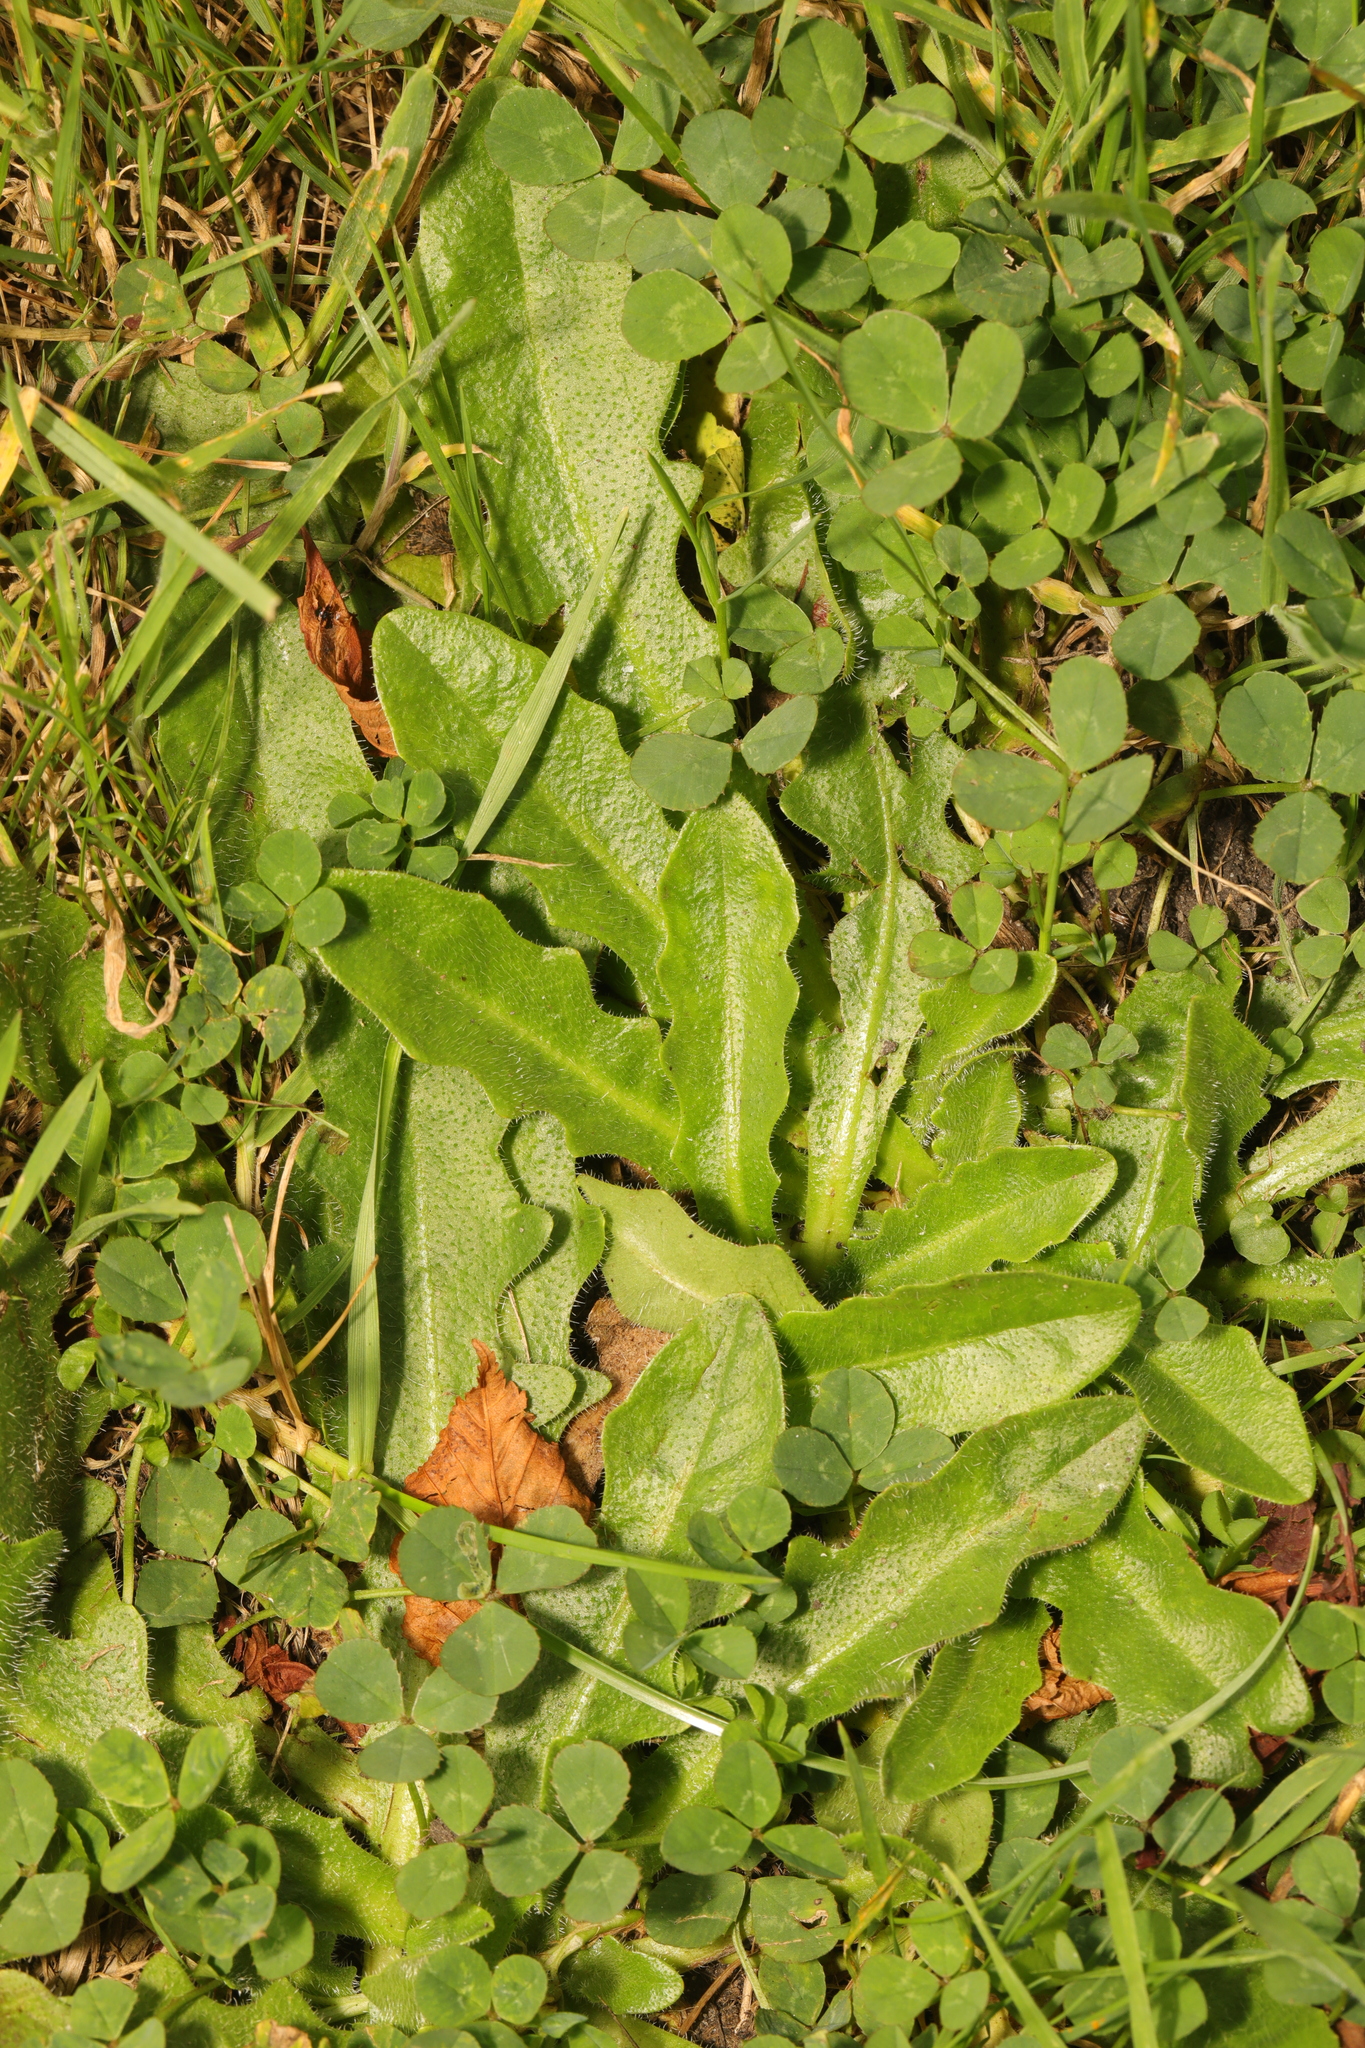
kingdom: Plantae
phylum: Tracheophyta
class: Magnoliopsida
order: Asterales
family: Asteraceae
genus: Hypochaeris
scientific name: Hypochaeris radicata
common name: Flatweed
